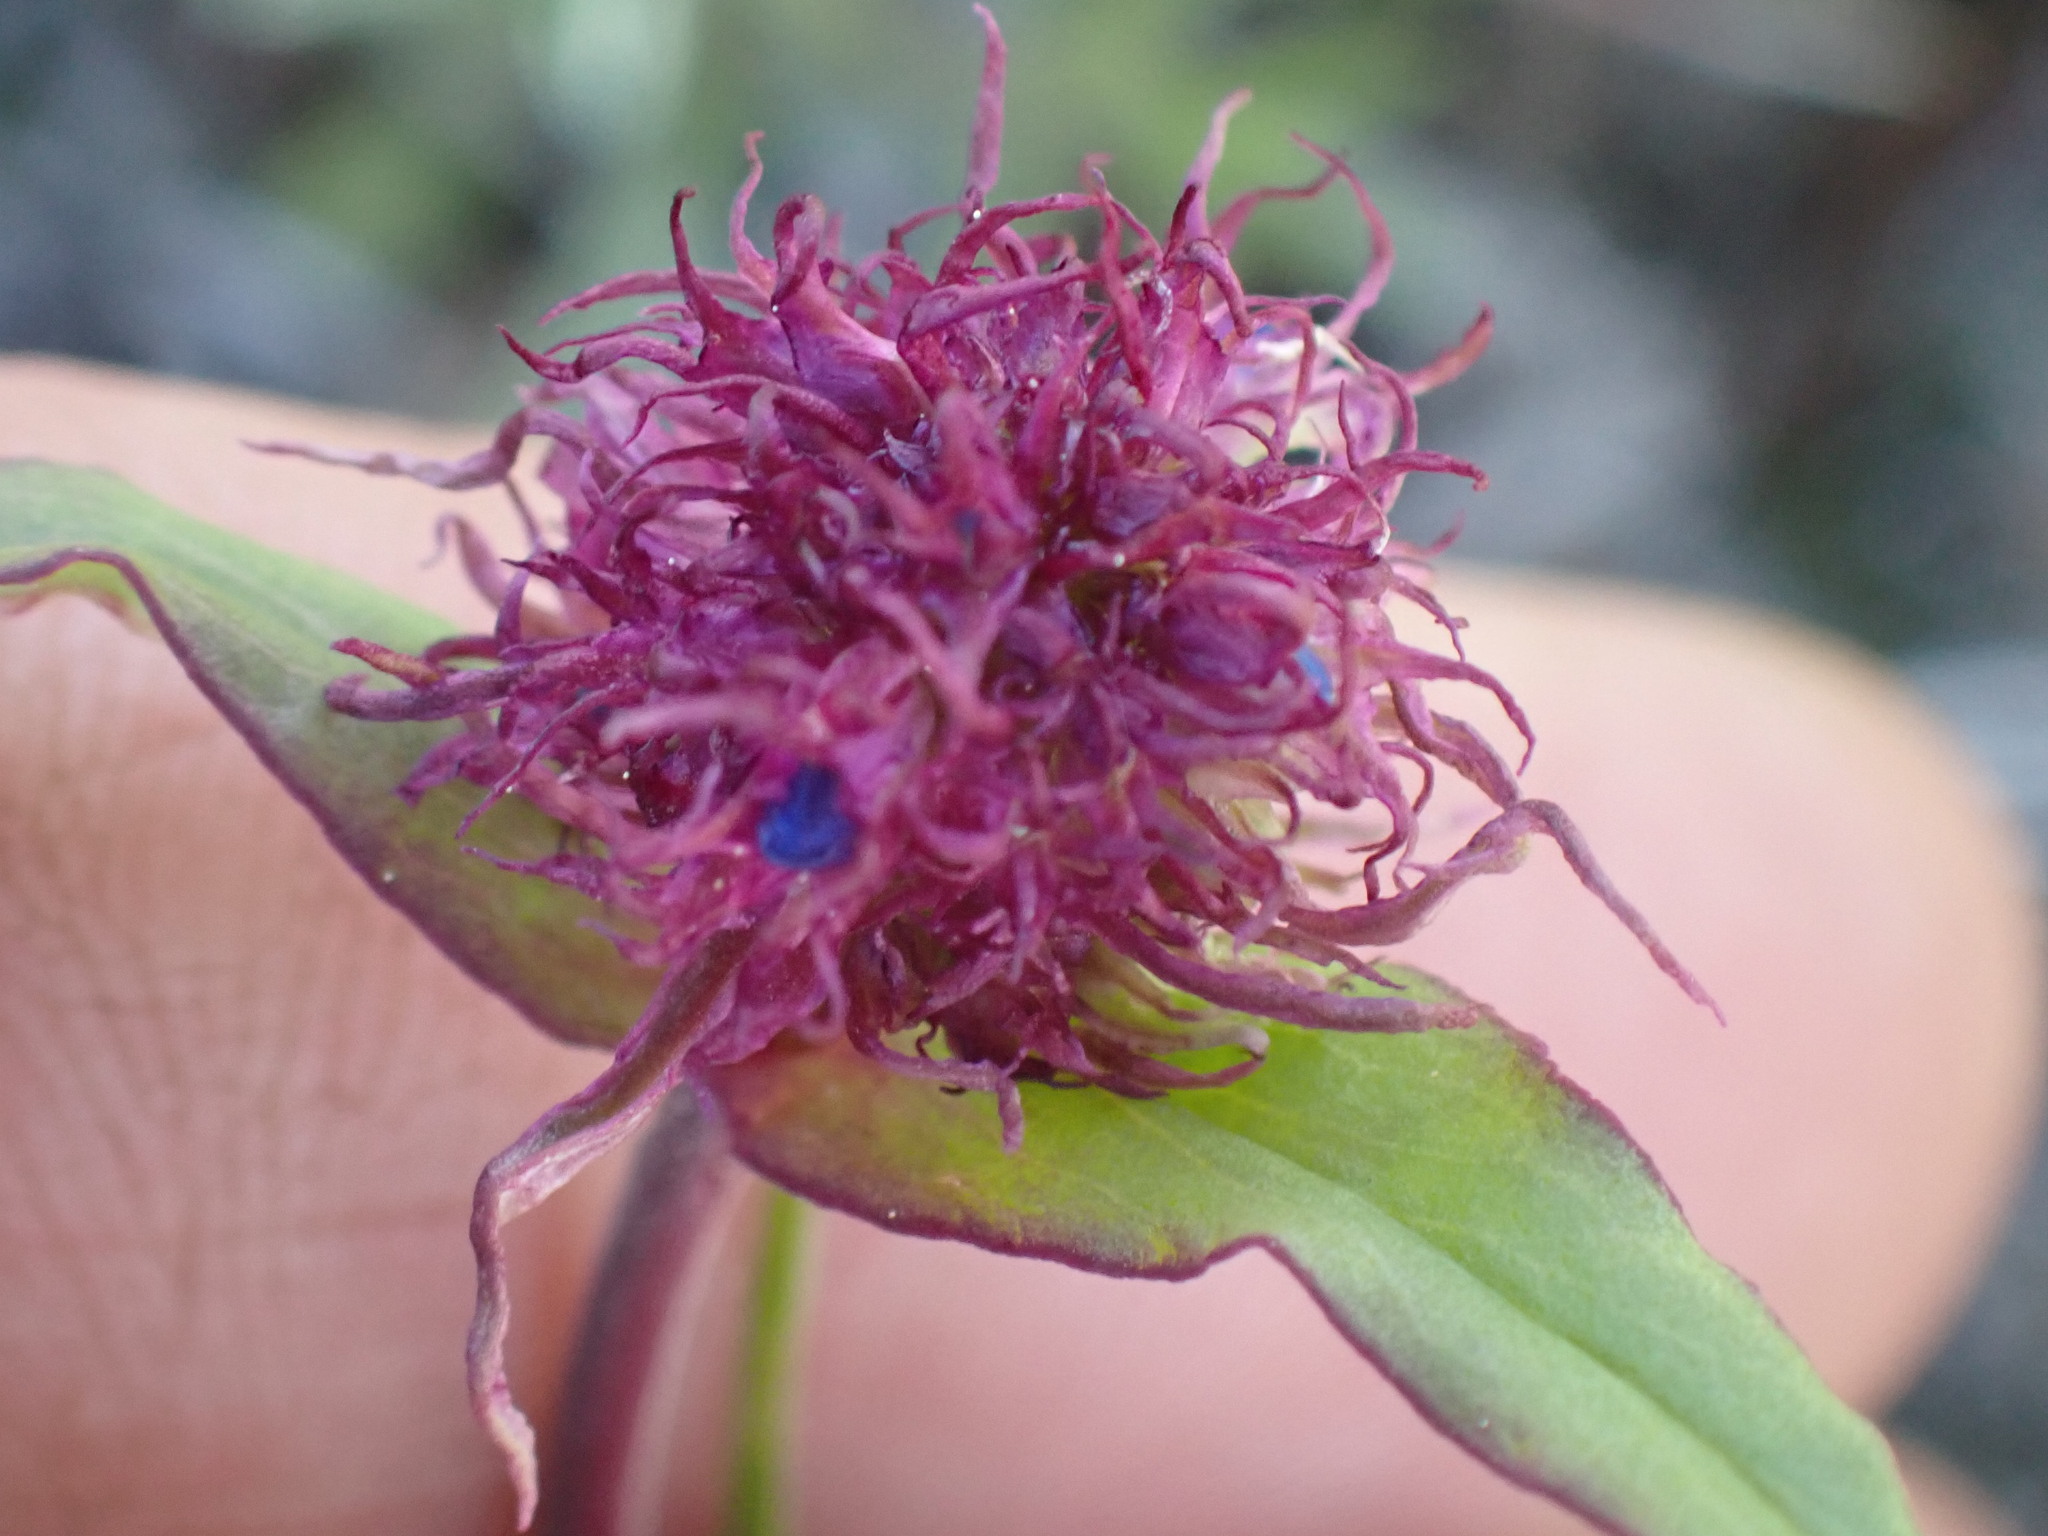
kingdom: Plantae
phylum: Tracheophyta
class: Magnoliopsida
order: Lamiales
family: Plantaginaceae
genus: Penstemon
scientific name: Penstemon procerus
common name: Small-flower penstemon
